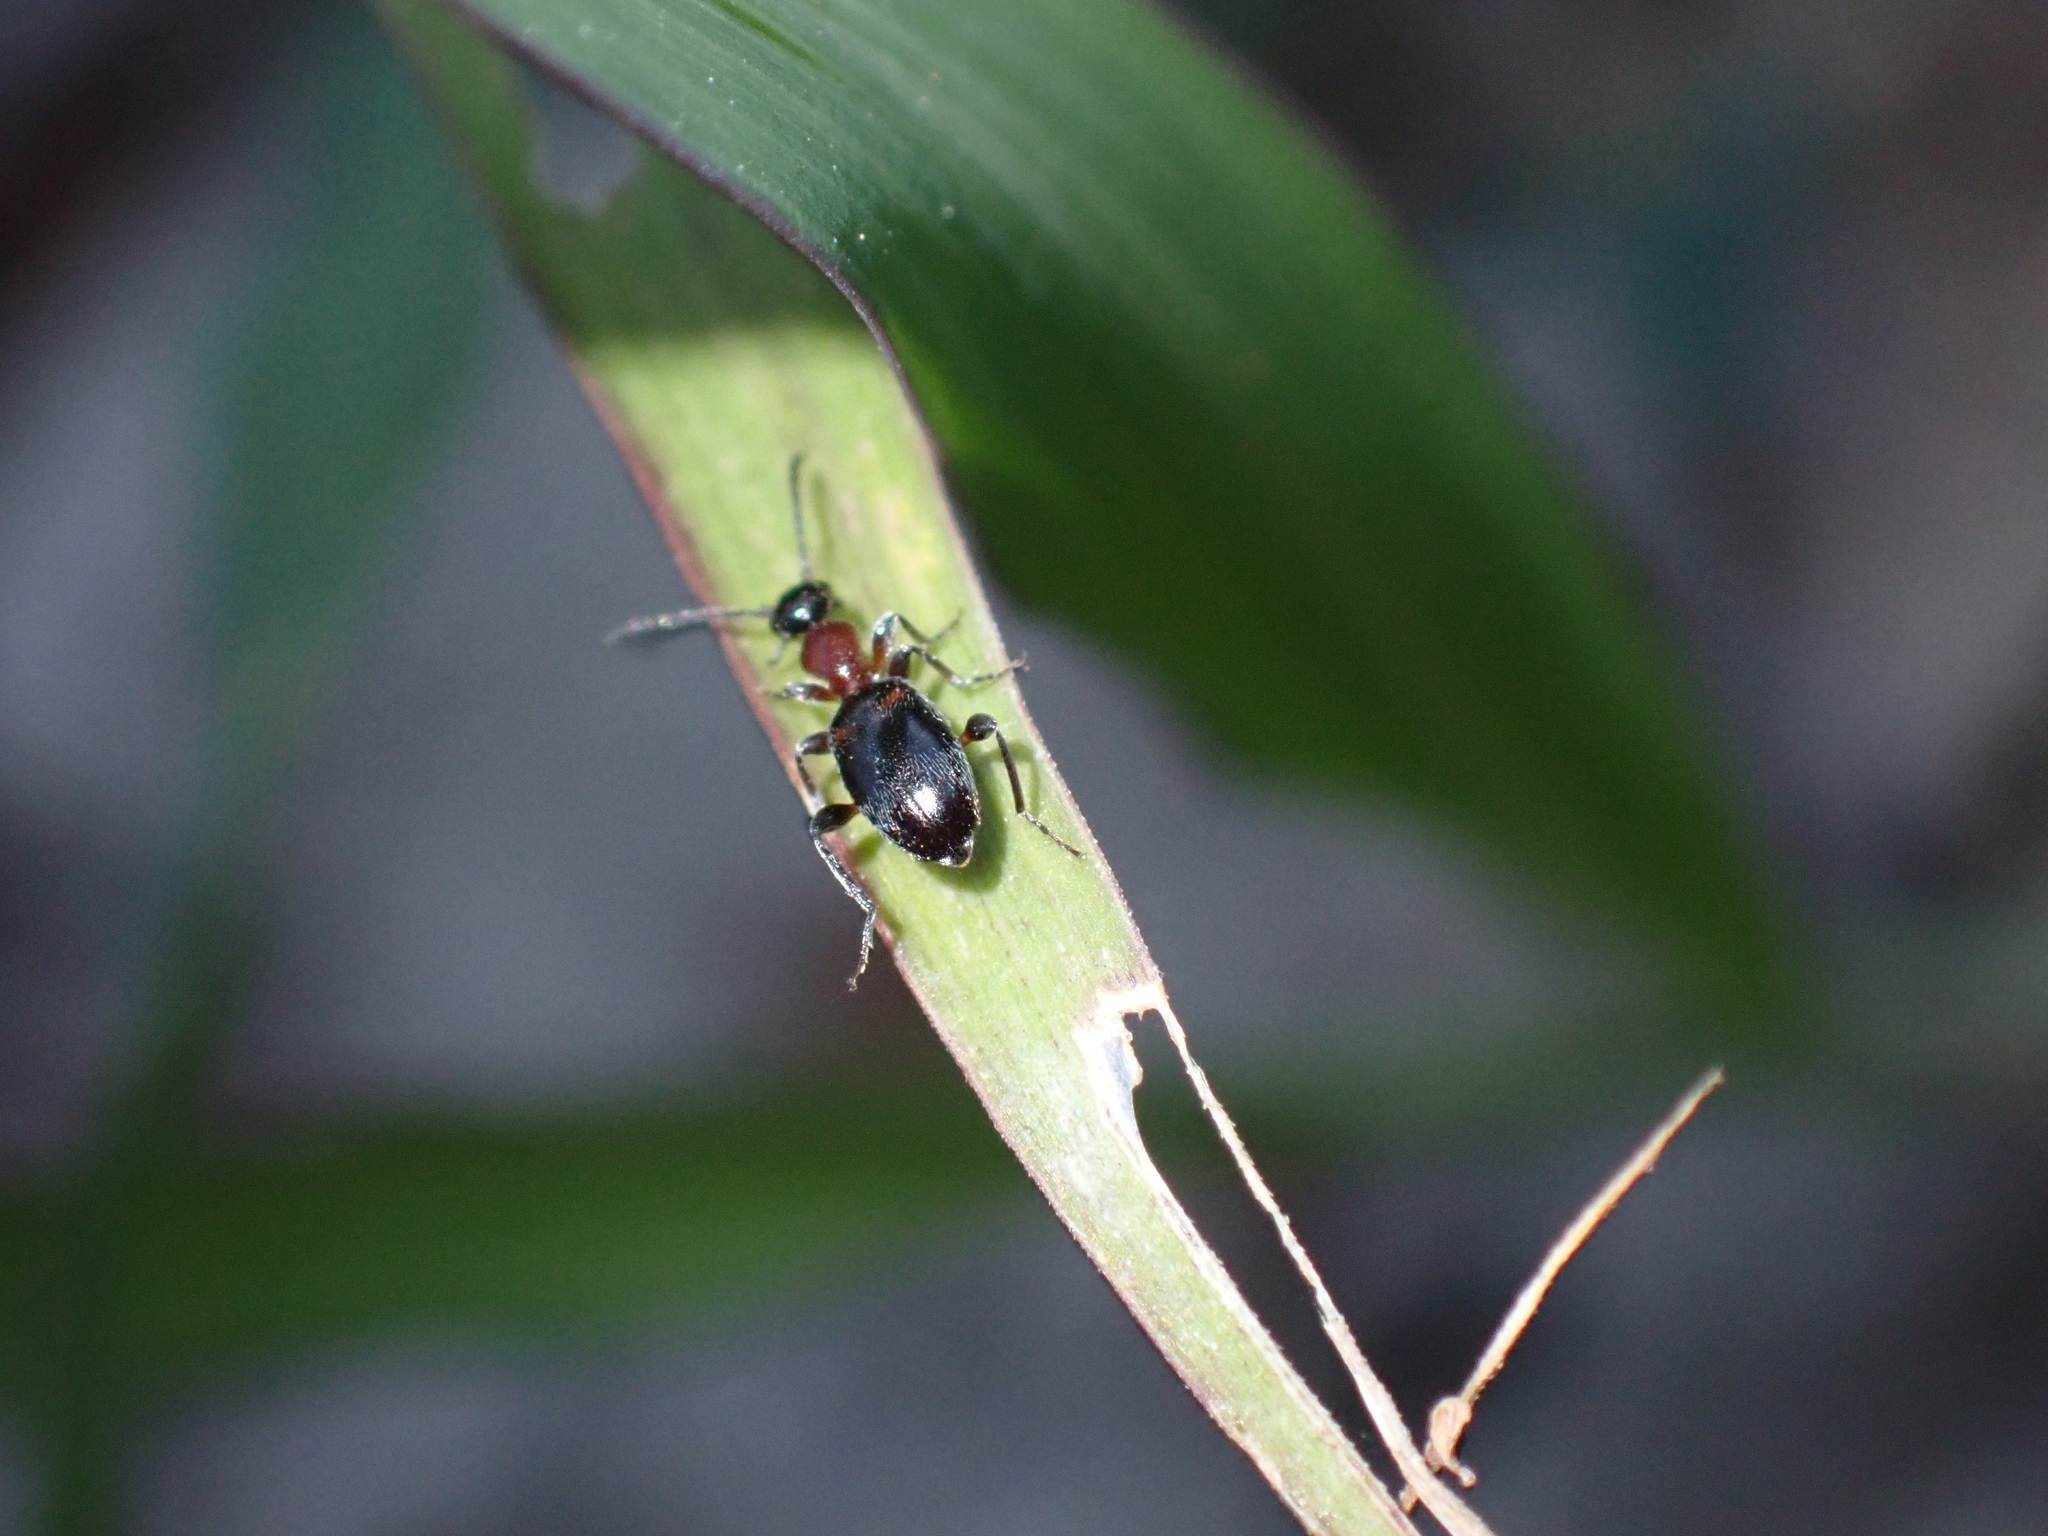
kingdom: Animalia
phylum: Arthropoda
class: Insecta
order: Coleoptera
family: Anthicidae
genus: Anthelephila
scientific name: Anthelephila pedestris
